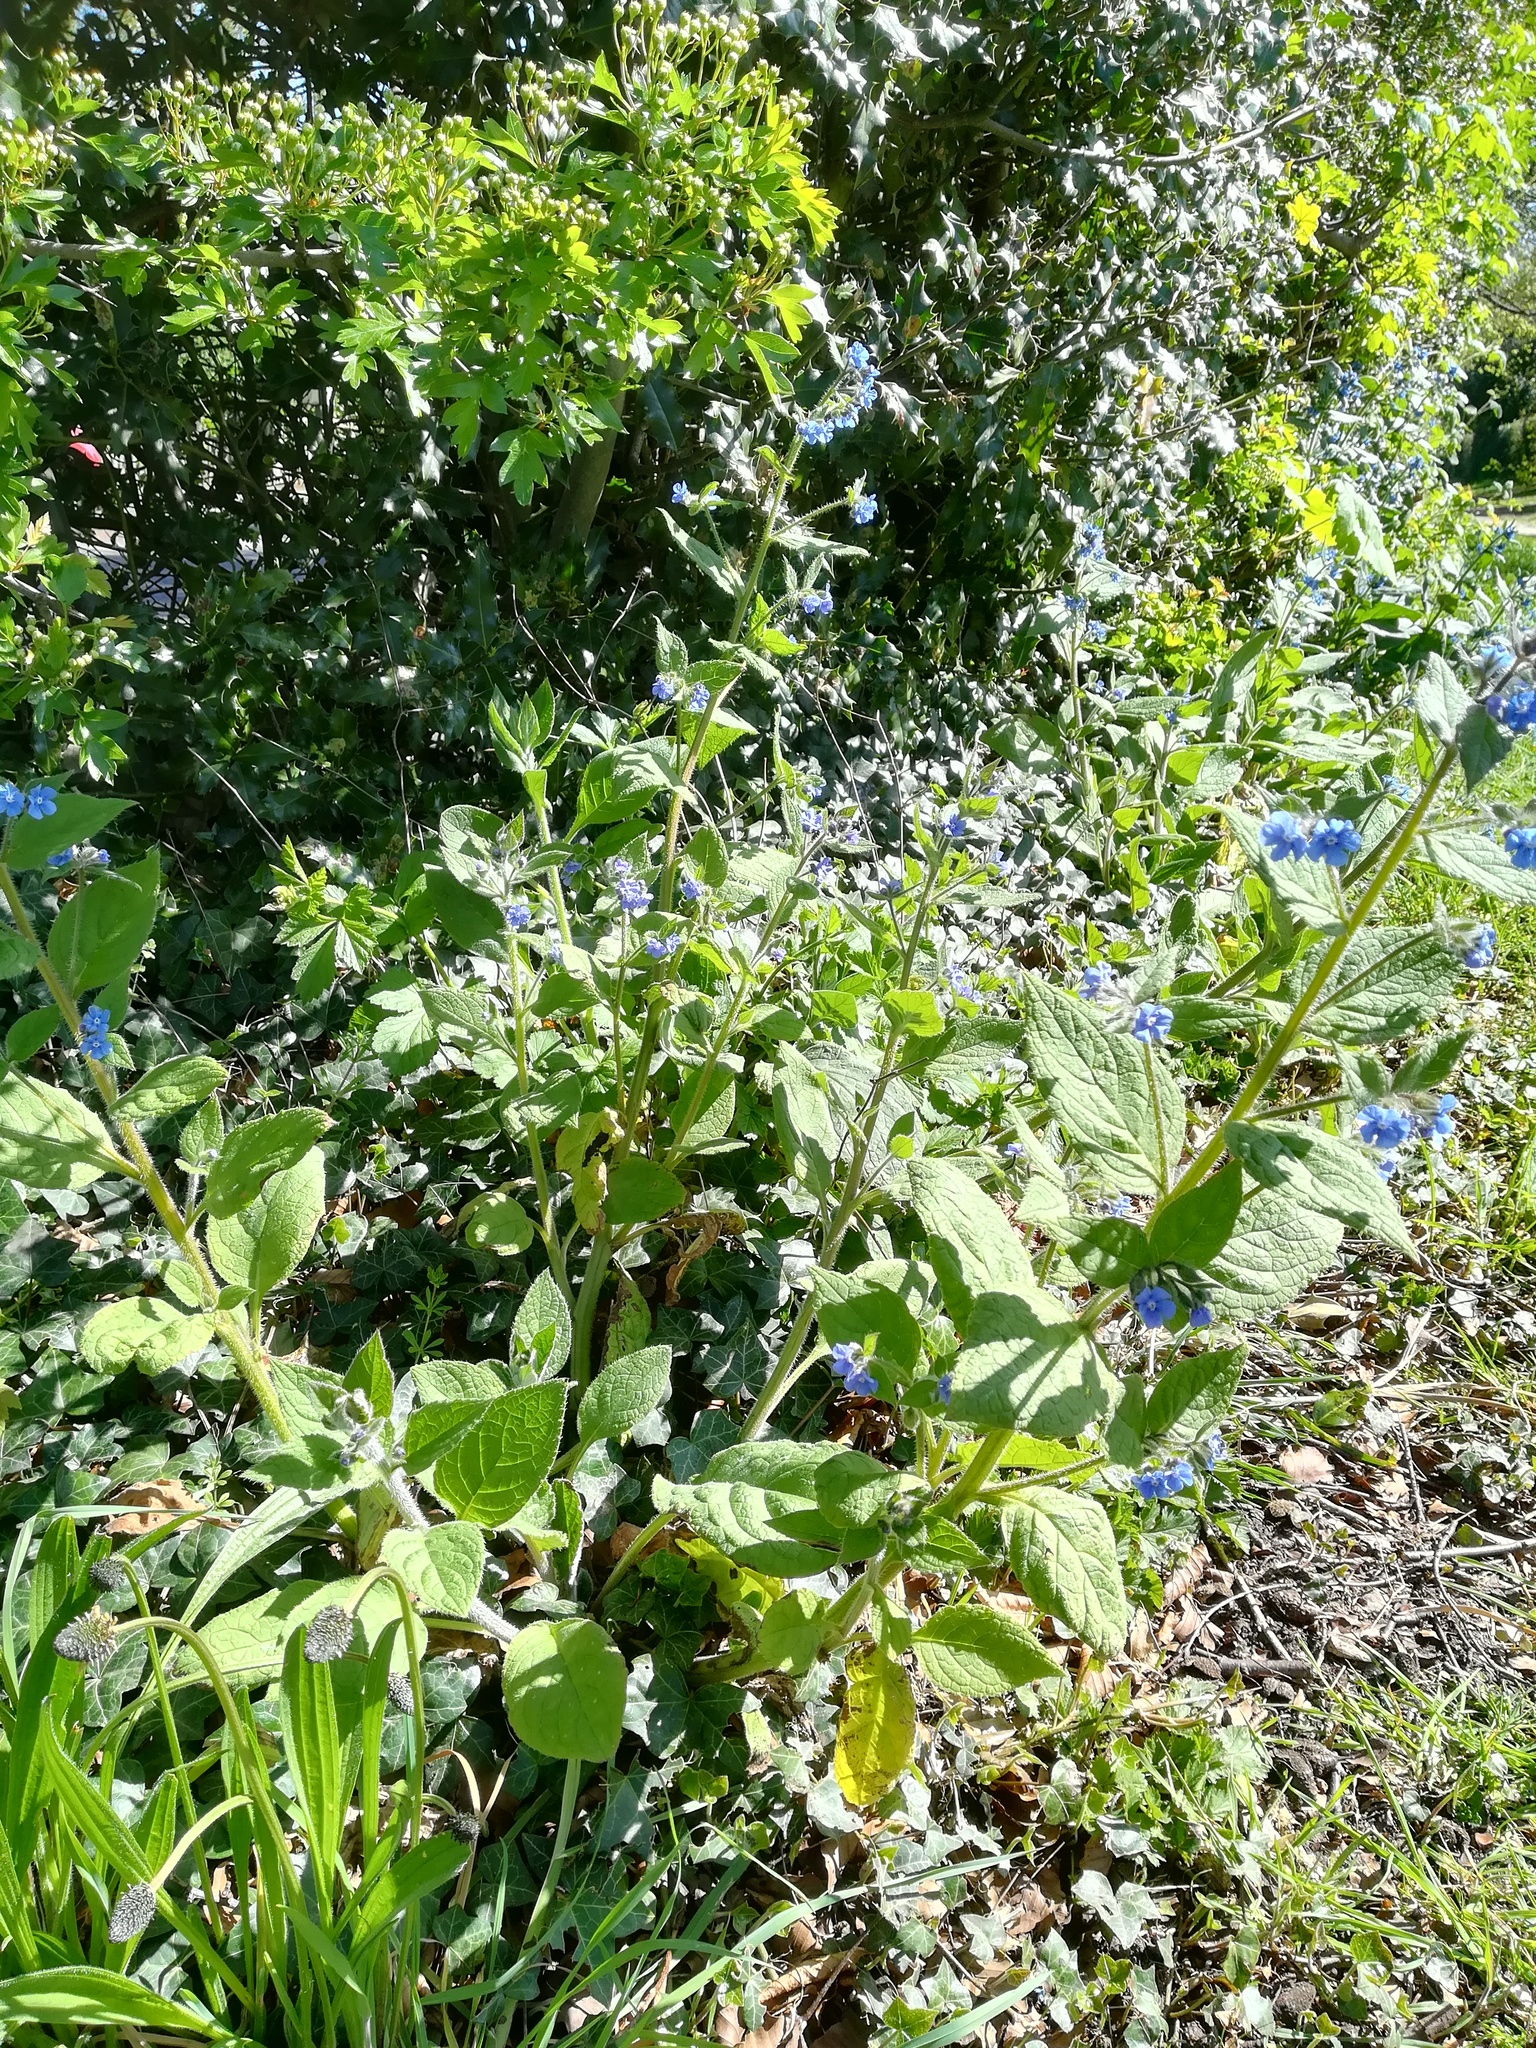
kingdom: Plantae
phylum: Tracheophyta
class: Magnoliopsida
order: Boraginales
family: Boraginaceae
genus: Pentaglottis
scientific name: Pentaglottis sempervirens
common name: Green alkanet
